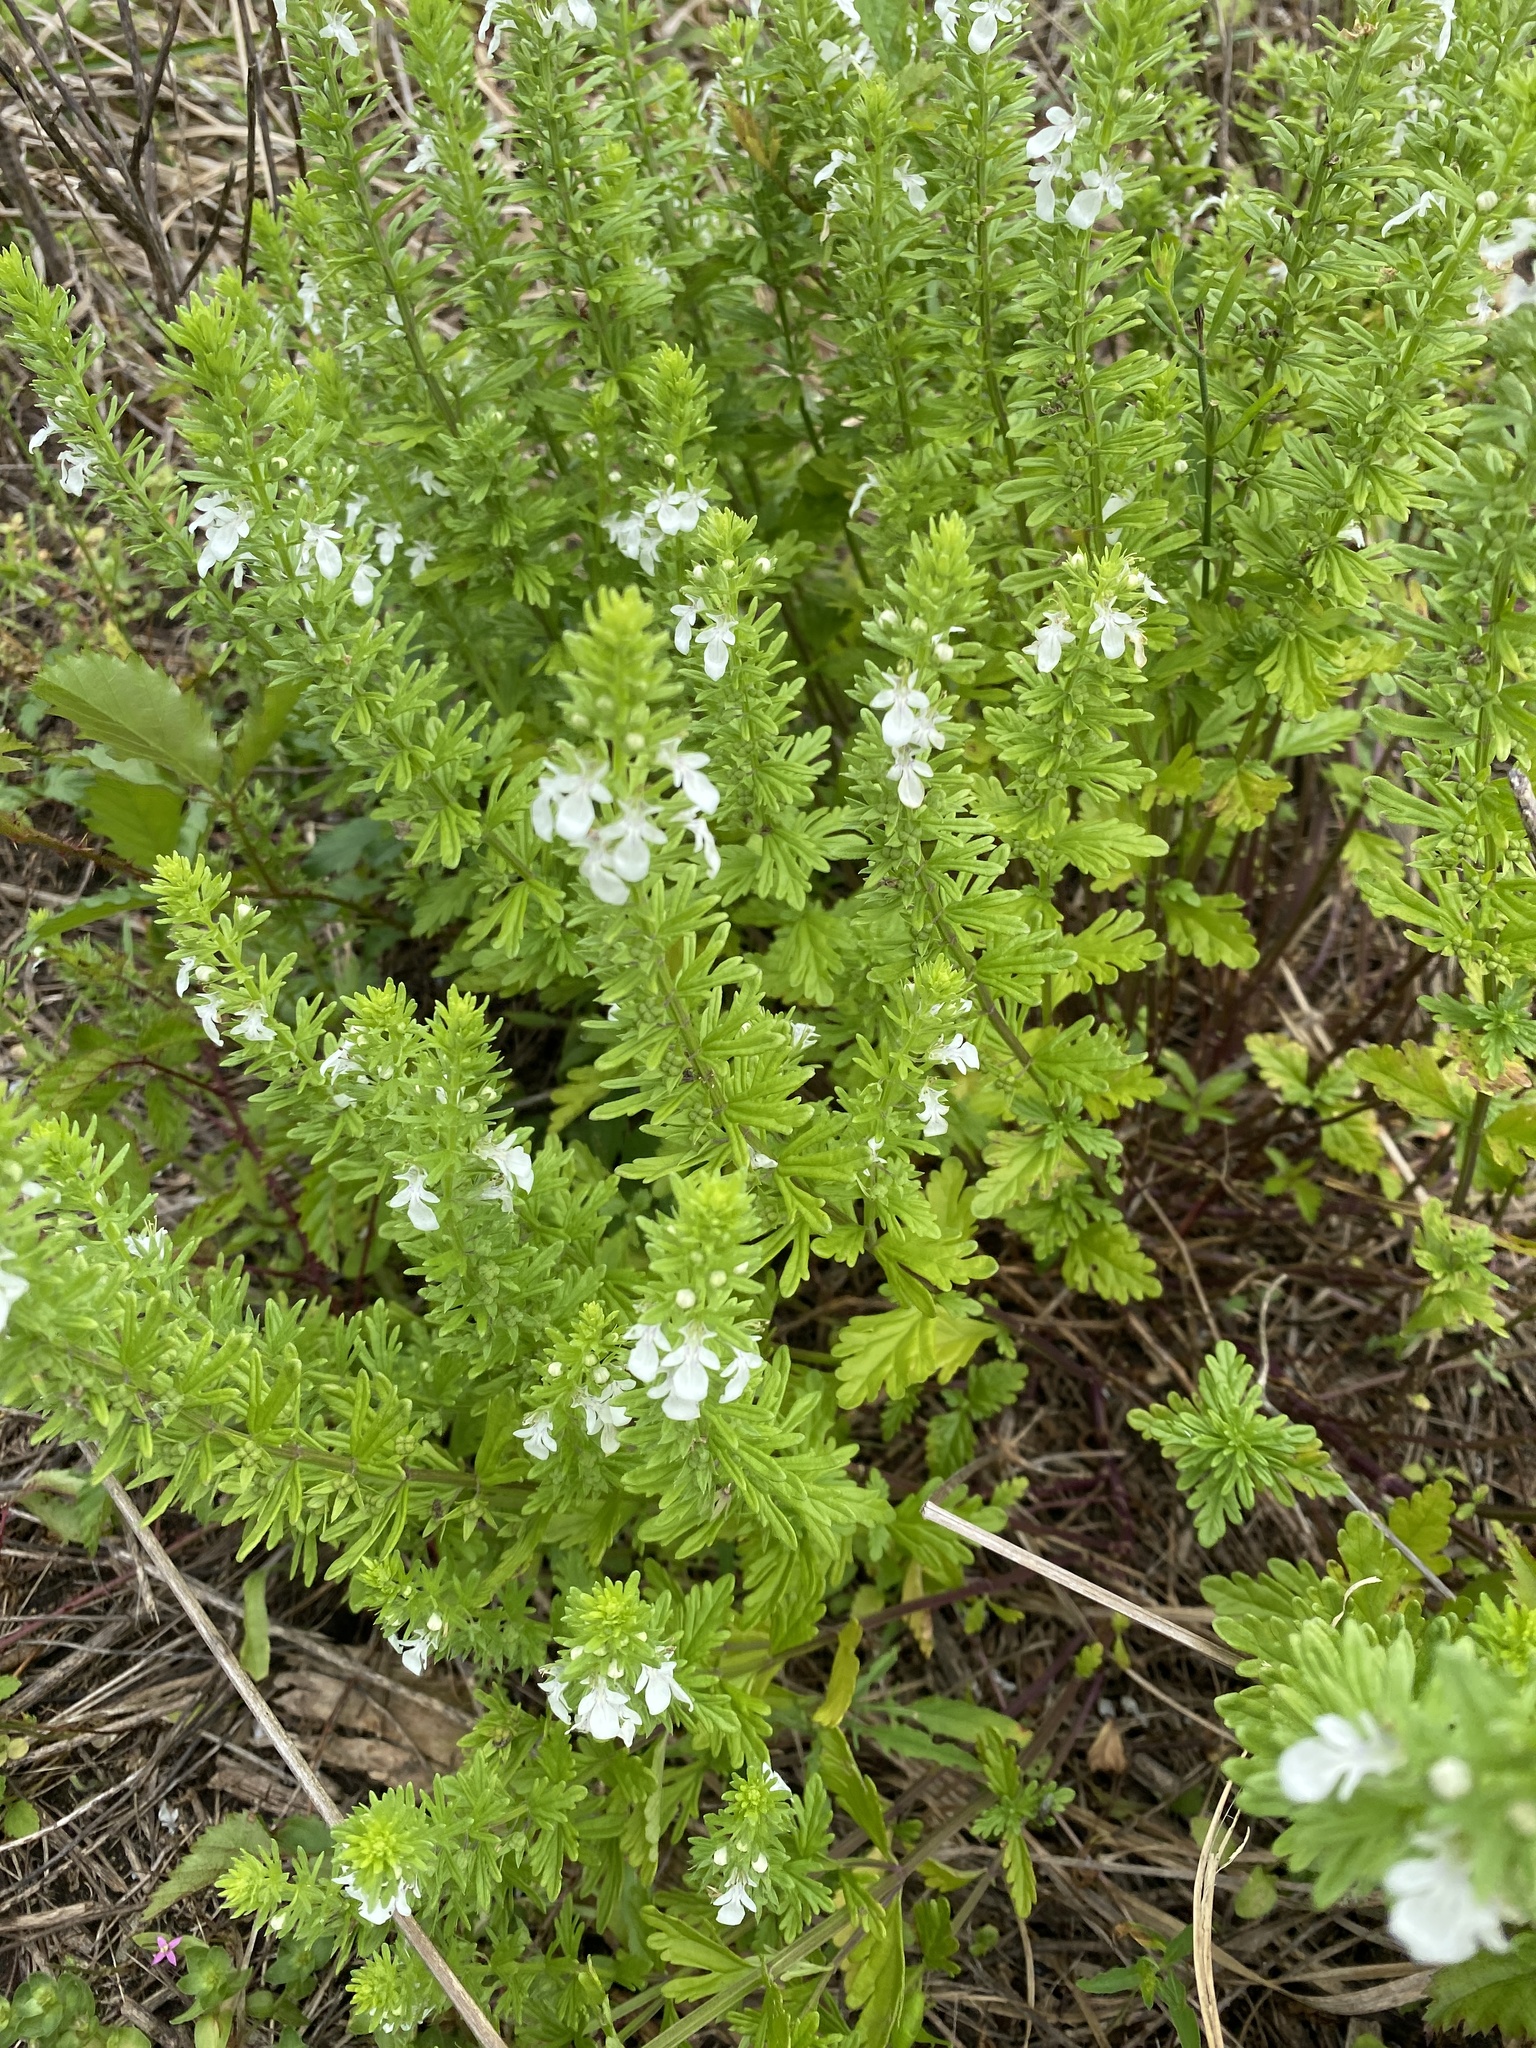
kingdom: Plantae
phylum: Tracheophyta
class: Magnoliopsida
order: Lamiales
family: Lamiaceae
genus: Teucrium
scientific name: Teucrium cubense
